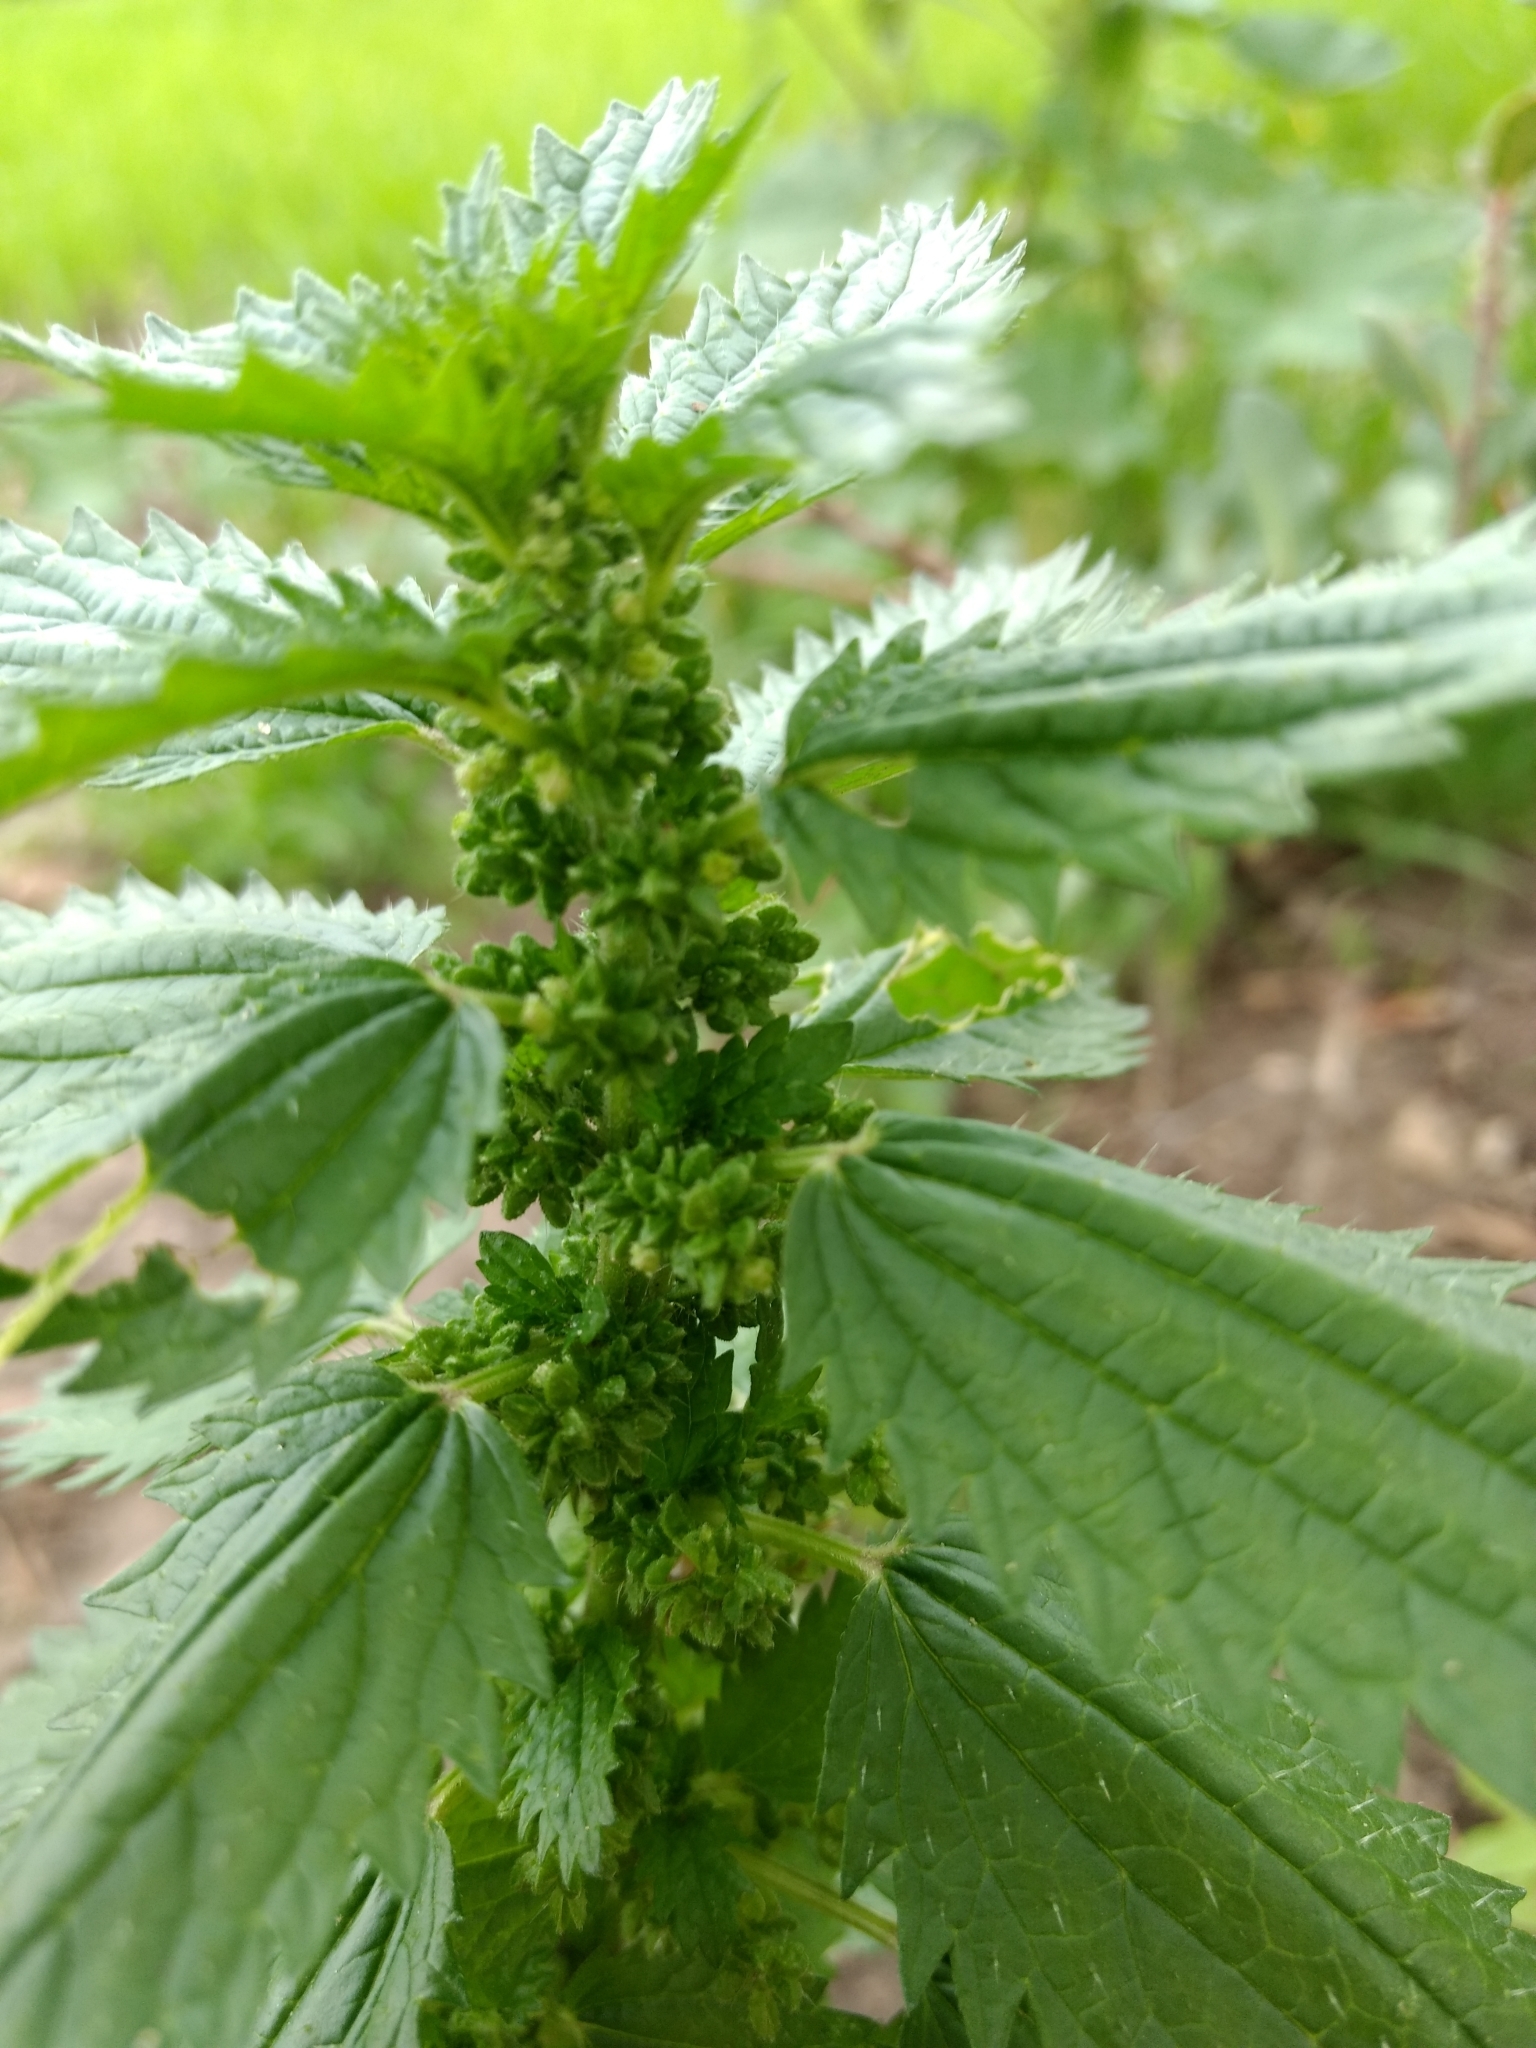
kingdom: Plantae
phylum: Tracheophyta
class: Magnoliopsida
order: Rosales
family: Urticaceae
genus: Urtica
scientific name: Urtica urens
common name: Dwarf nettle
